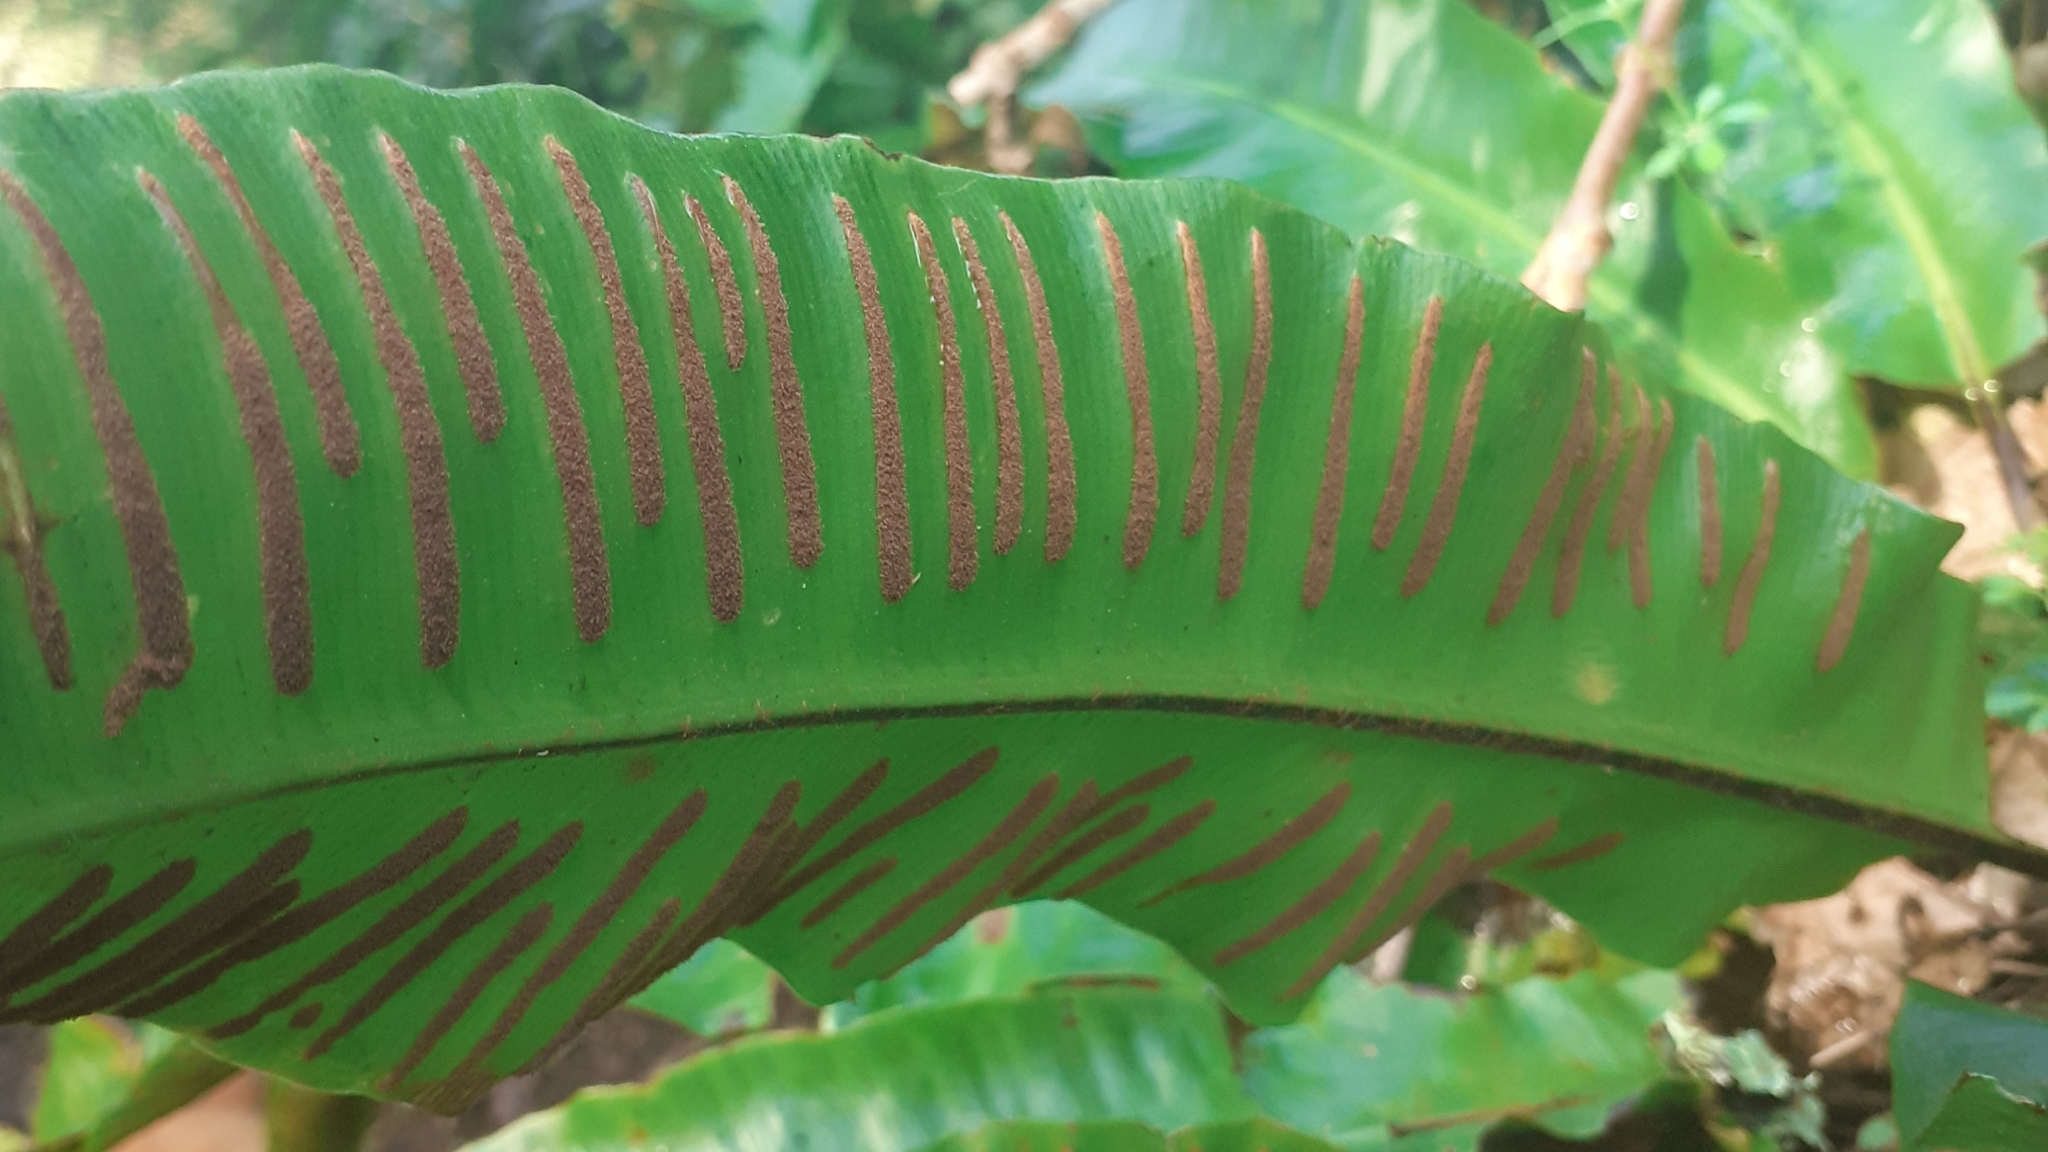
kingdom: Plantae
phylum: Tracheophyta
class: Polypodiopsida
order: Polypodiales
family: Aspleniaceae
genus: Asplenium
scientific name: Asplenium scolopendrium
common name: Hart's-tongue fern
